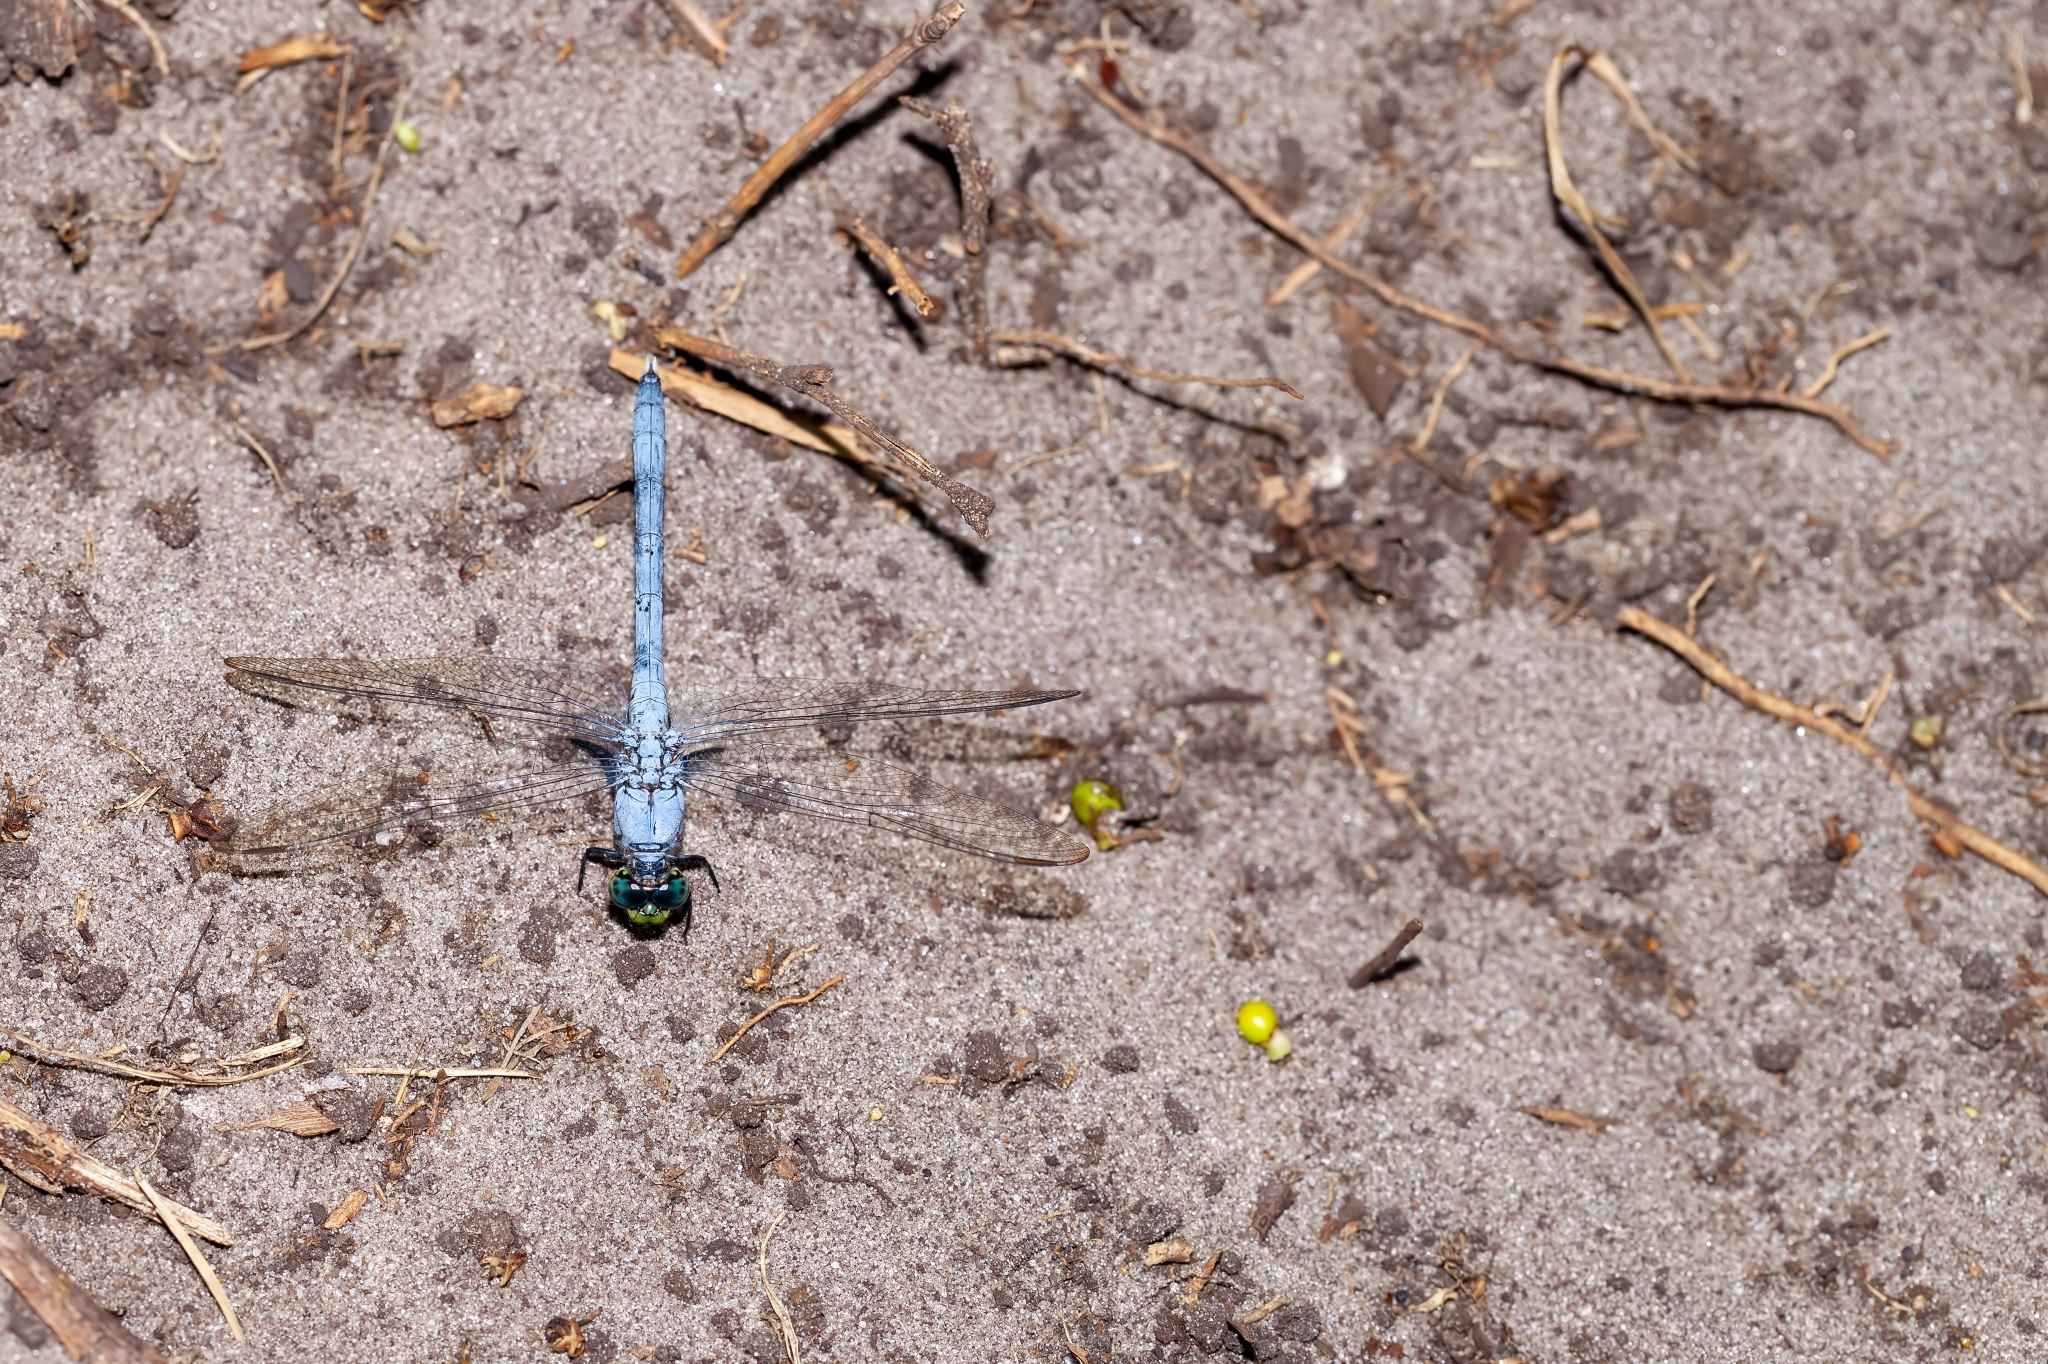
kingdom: Animalia
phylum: Arthropoda
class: Insecta
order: Odonata
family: Libellulidae
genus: Erythemis
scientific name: Erythemis simplicicollis
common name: Eastern pondhawk
